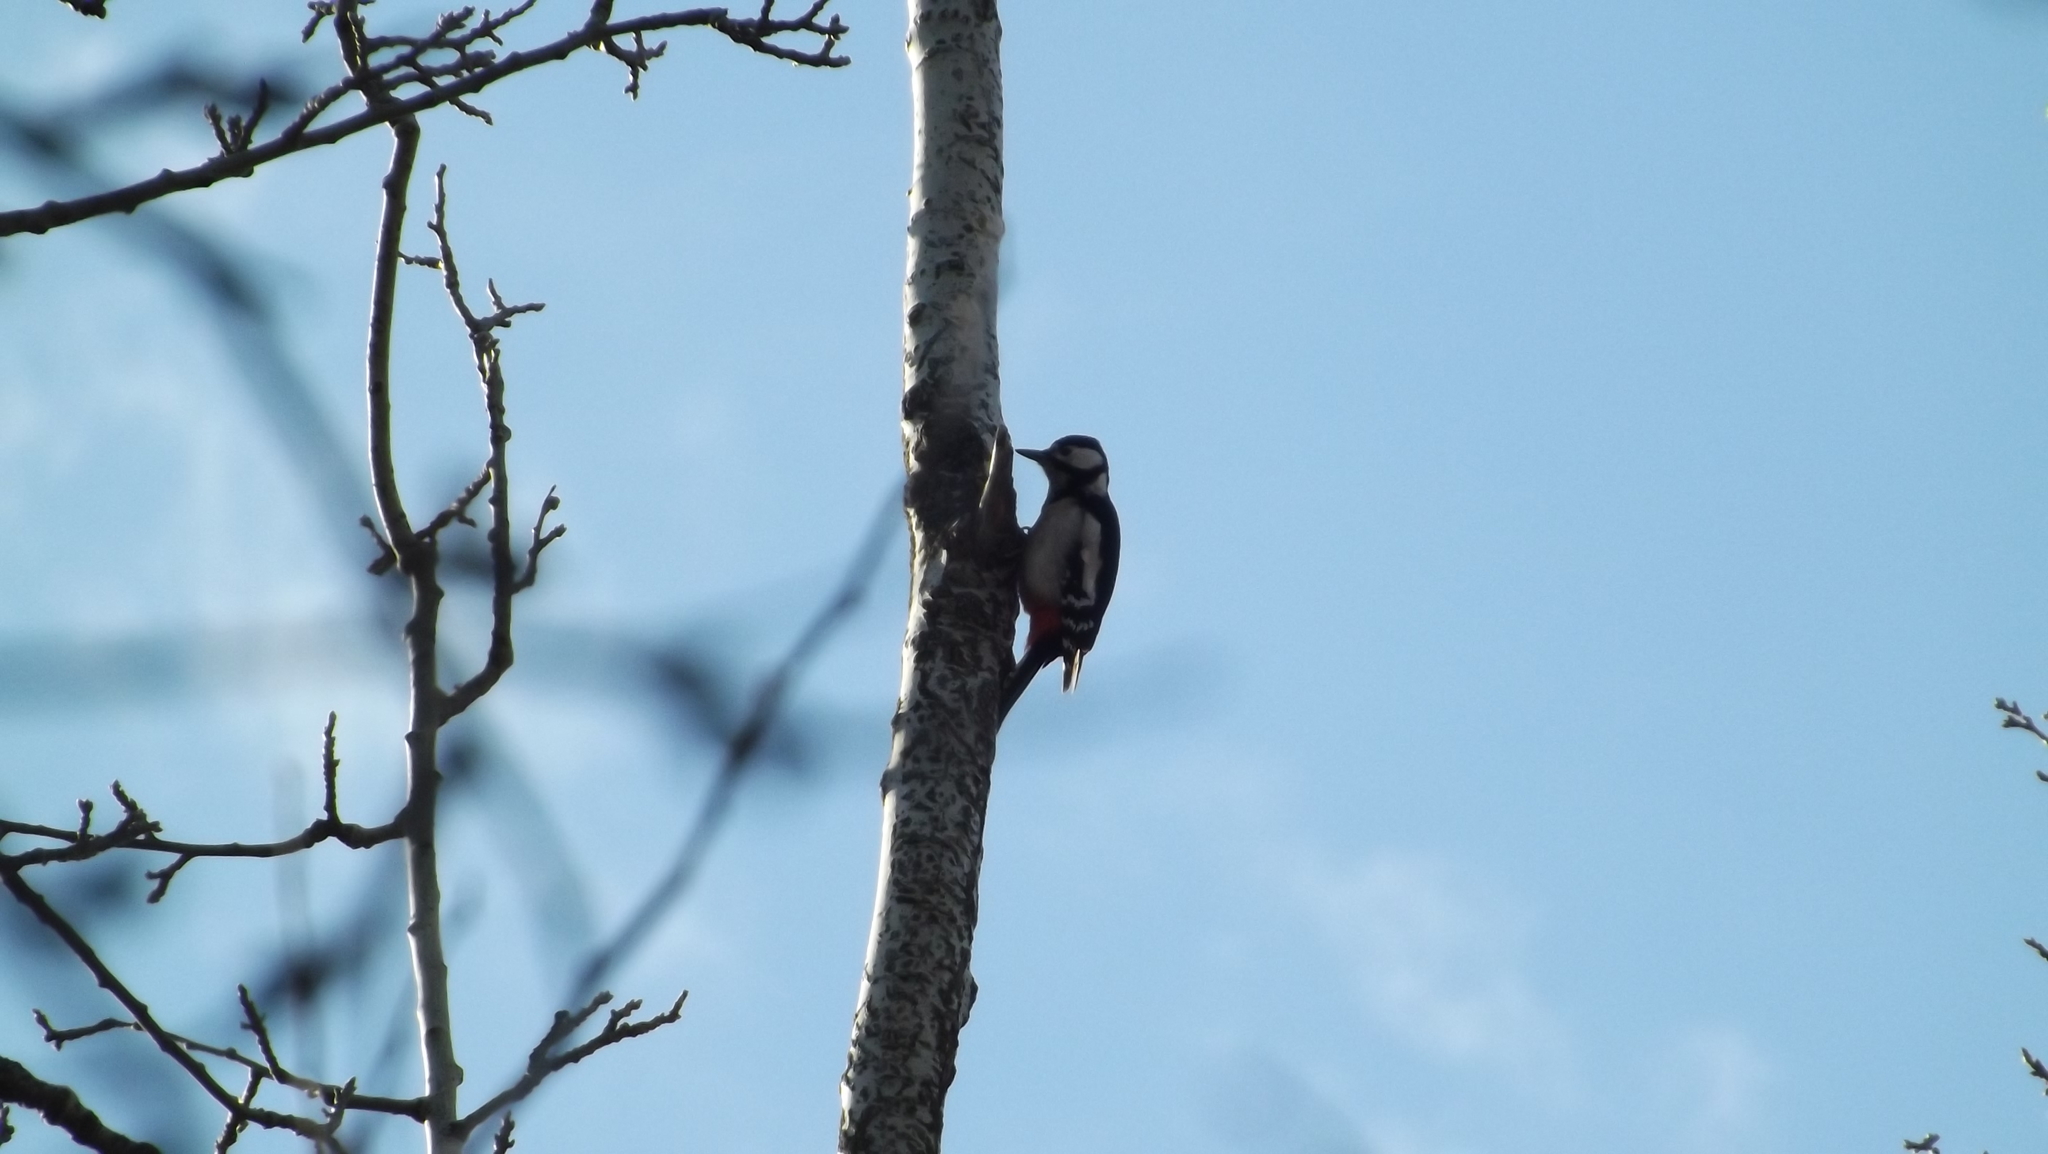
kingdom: Animalia
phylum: Chordata
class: Aves
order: Piciformes
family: Picidae
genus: Dendrocopos
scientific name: Dendrocopos major
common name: Great spotted woodpecker
